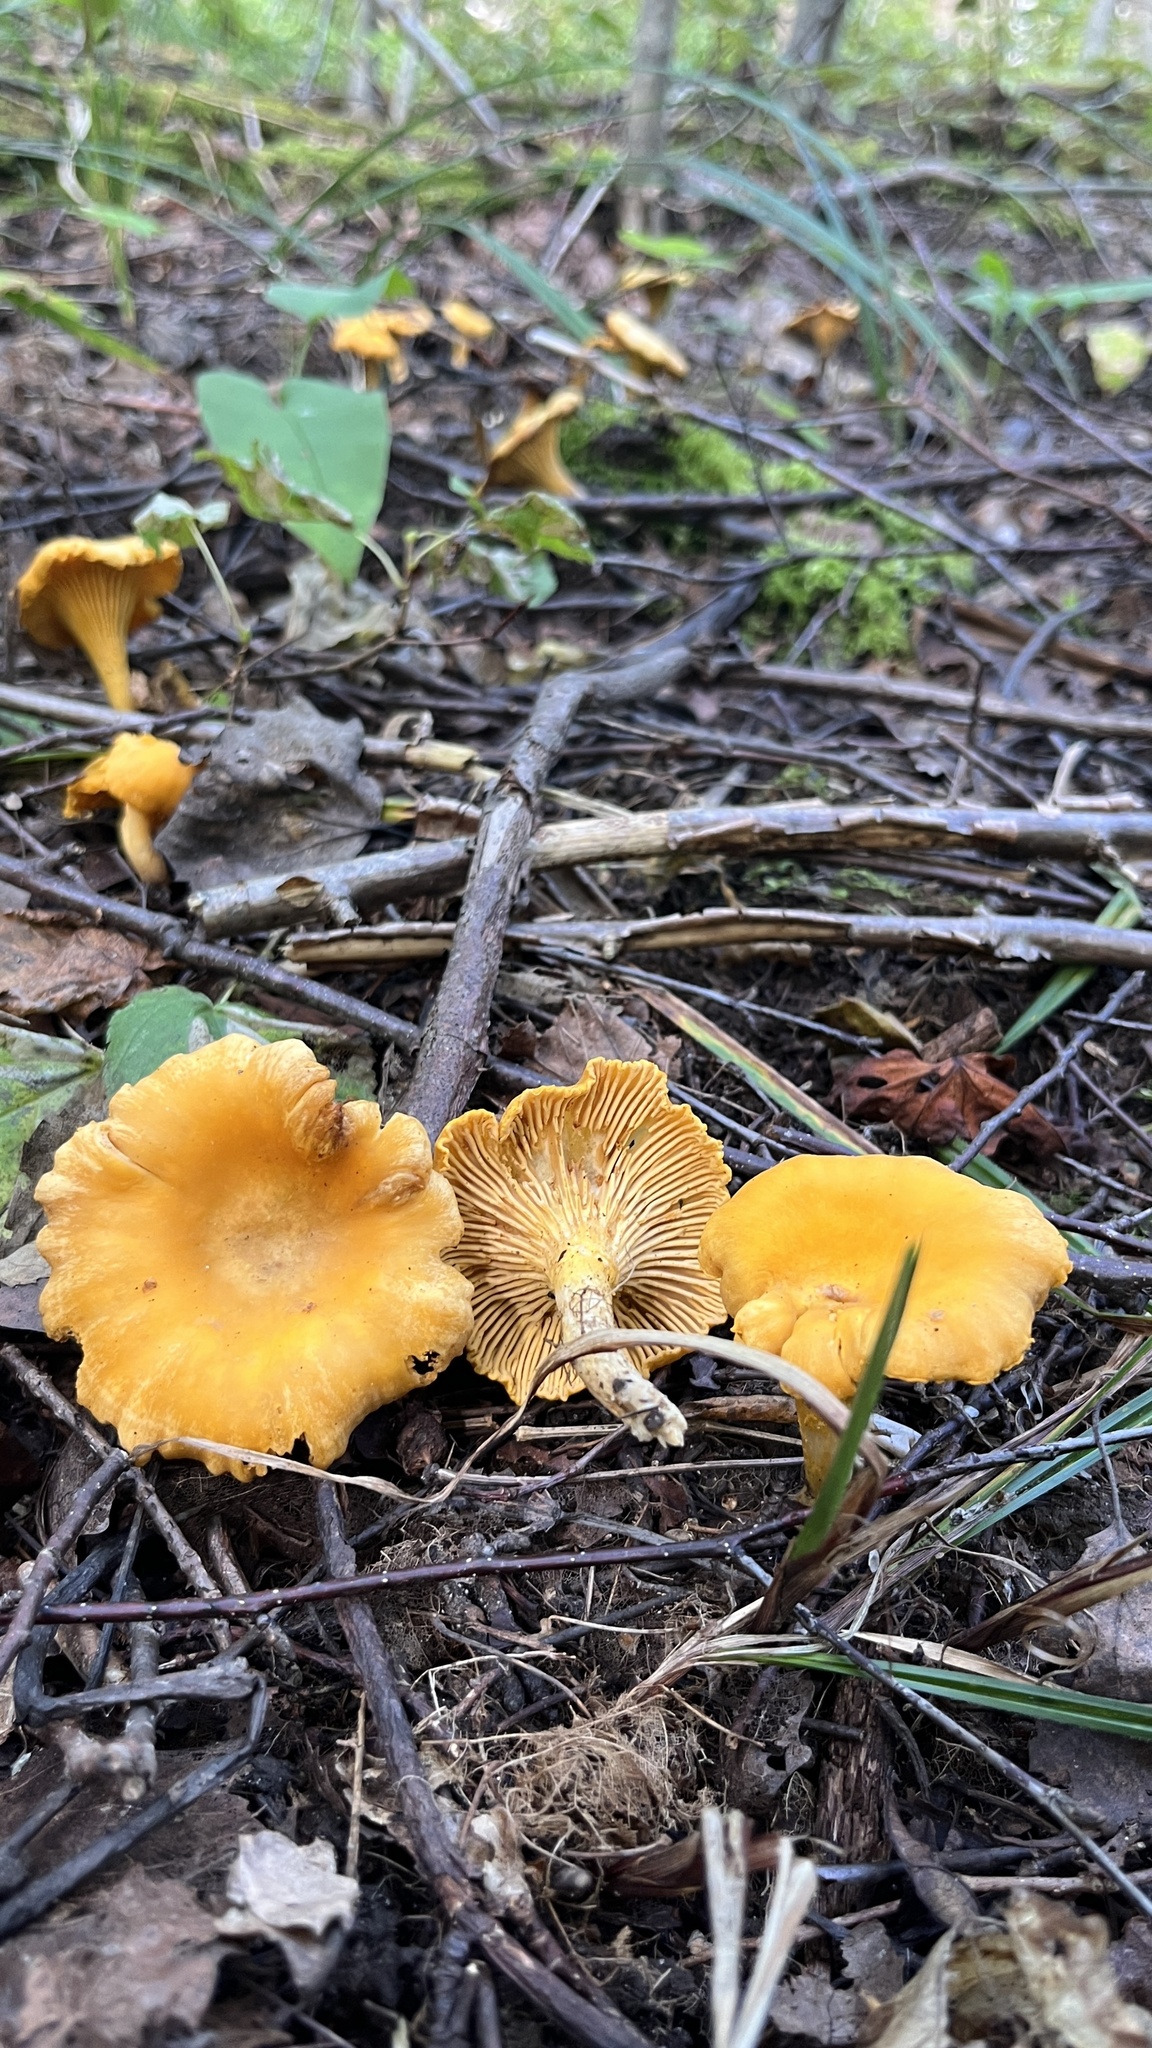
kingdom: Fungi
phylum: Basidiomycota
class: Agaricomycetes
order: Cantharellales
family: Hydnaceae
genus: Cantharellus
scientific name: Cantharellus cibarius
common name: Chanterelle
